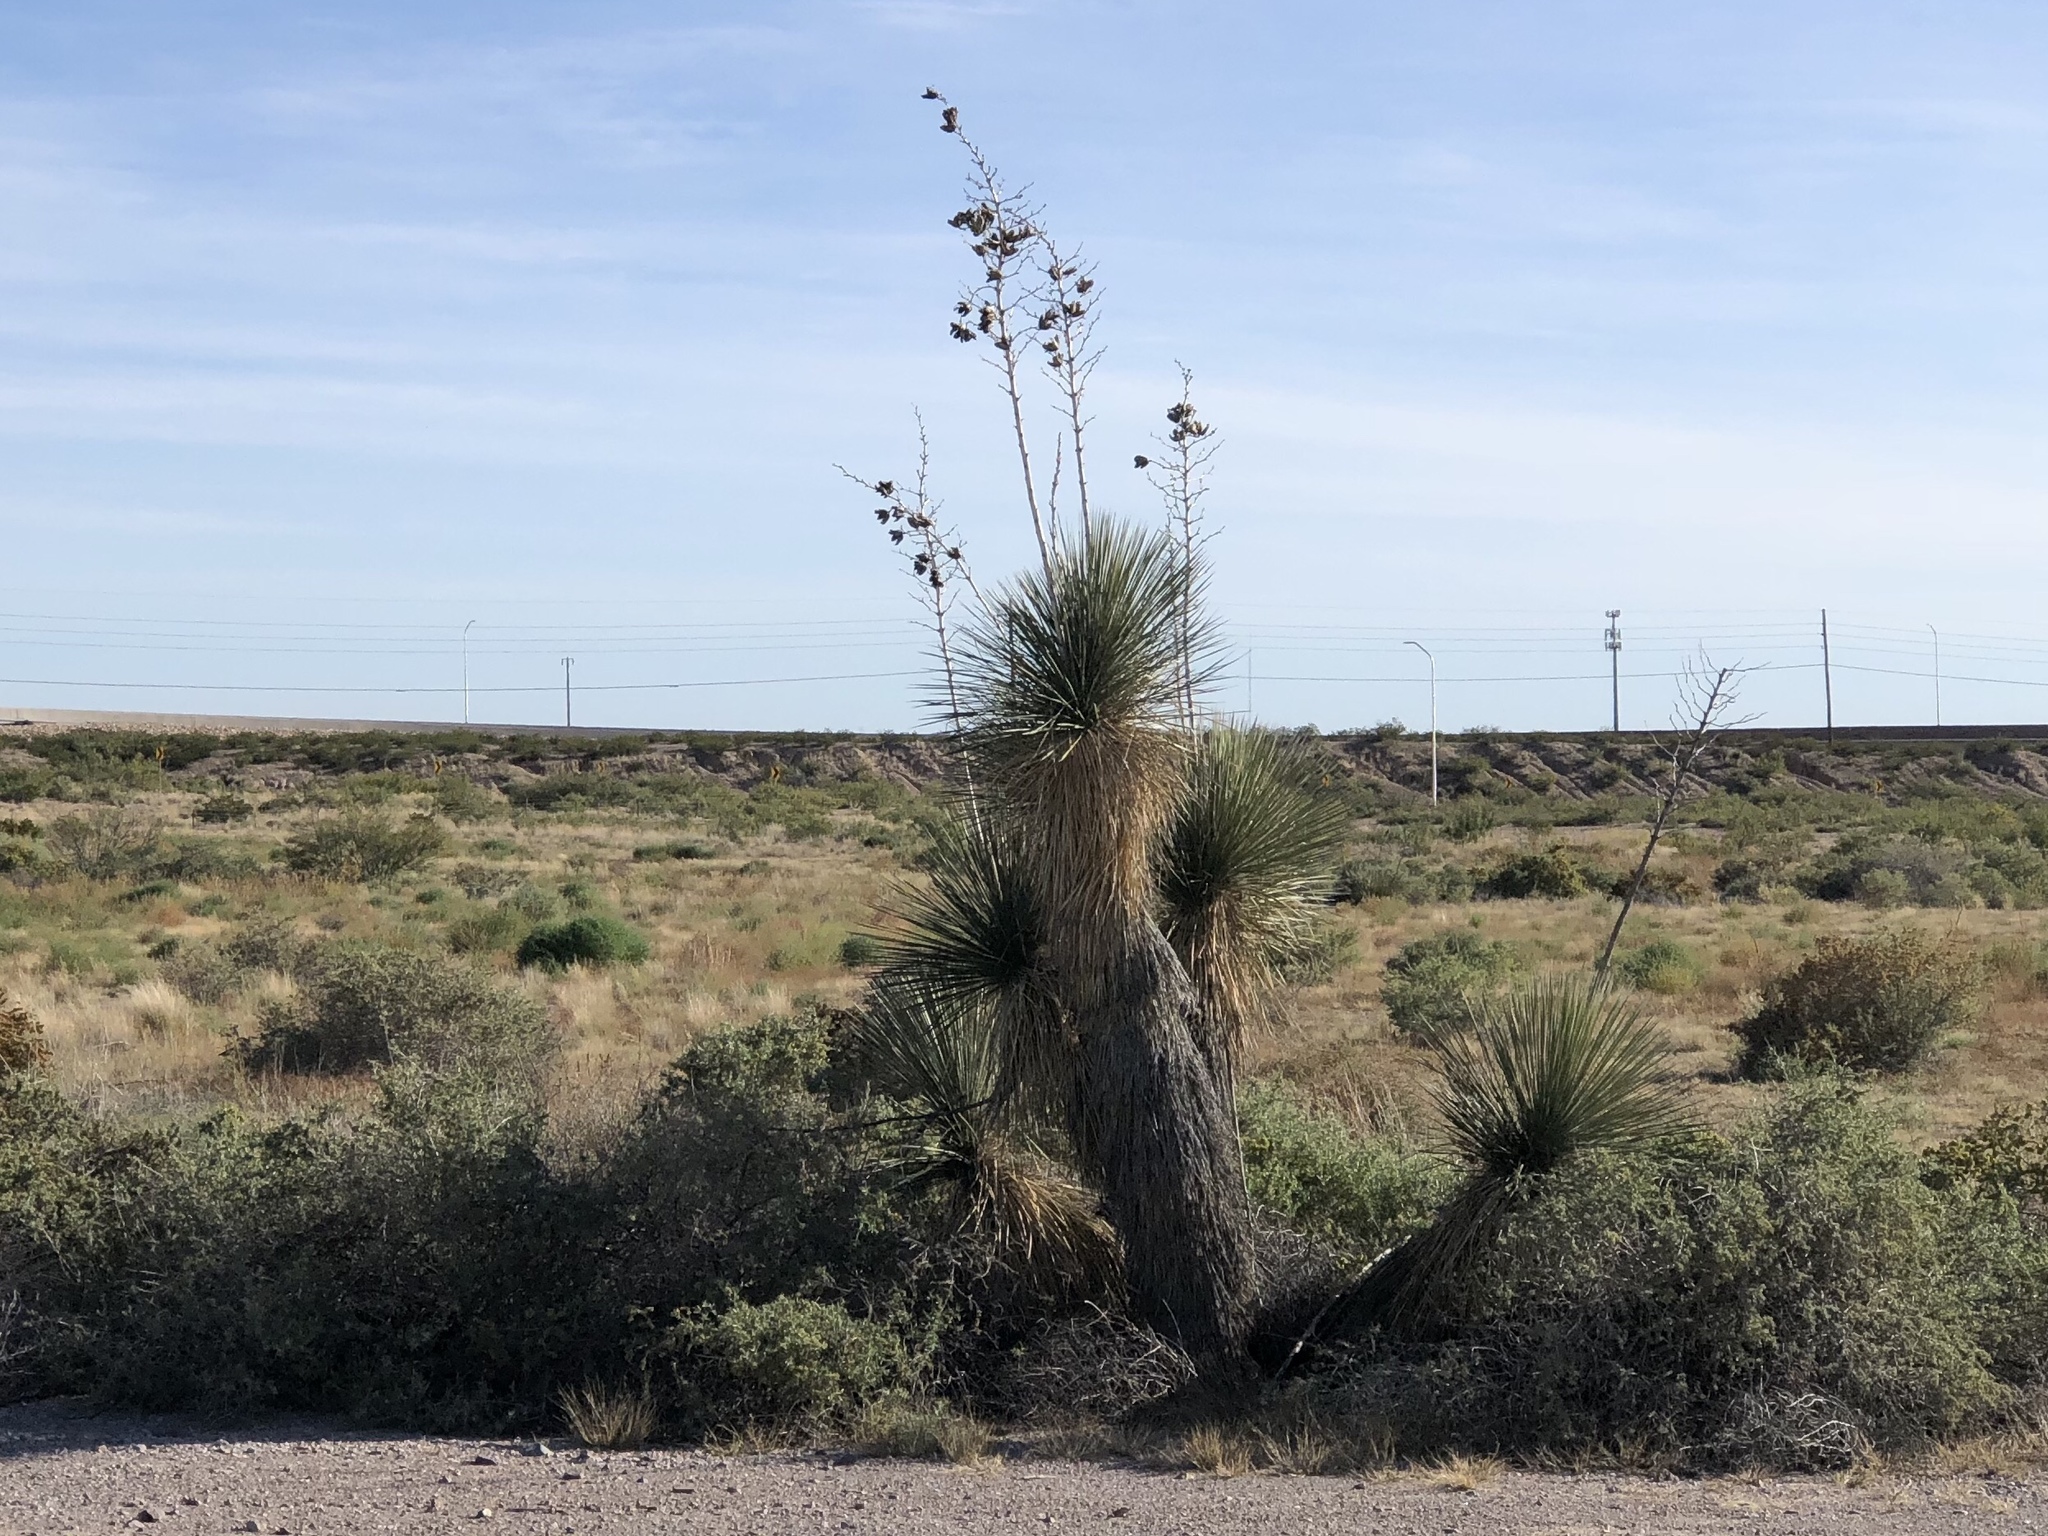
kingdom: Plantae
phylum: Tracheophyta
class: Liliopsida
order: Asparagales
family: Asparagaceae
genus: Yucca
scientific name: Yucca elata
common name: Palmella
